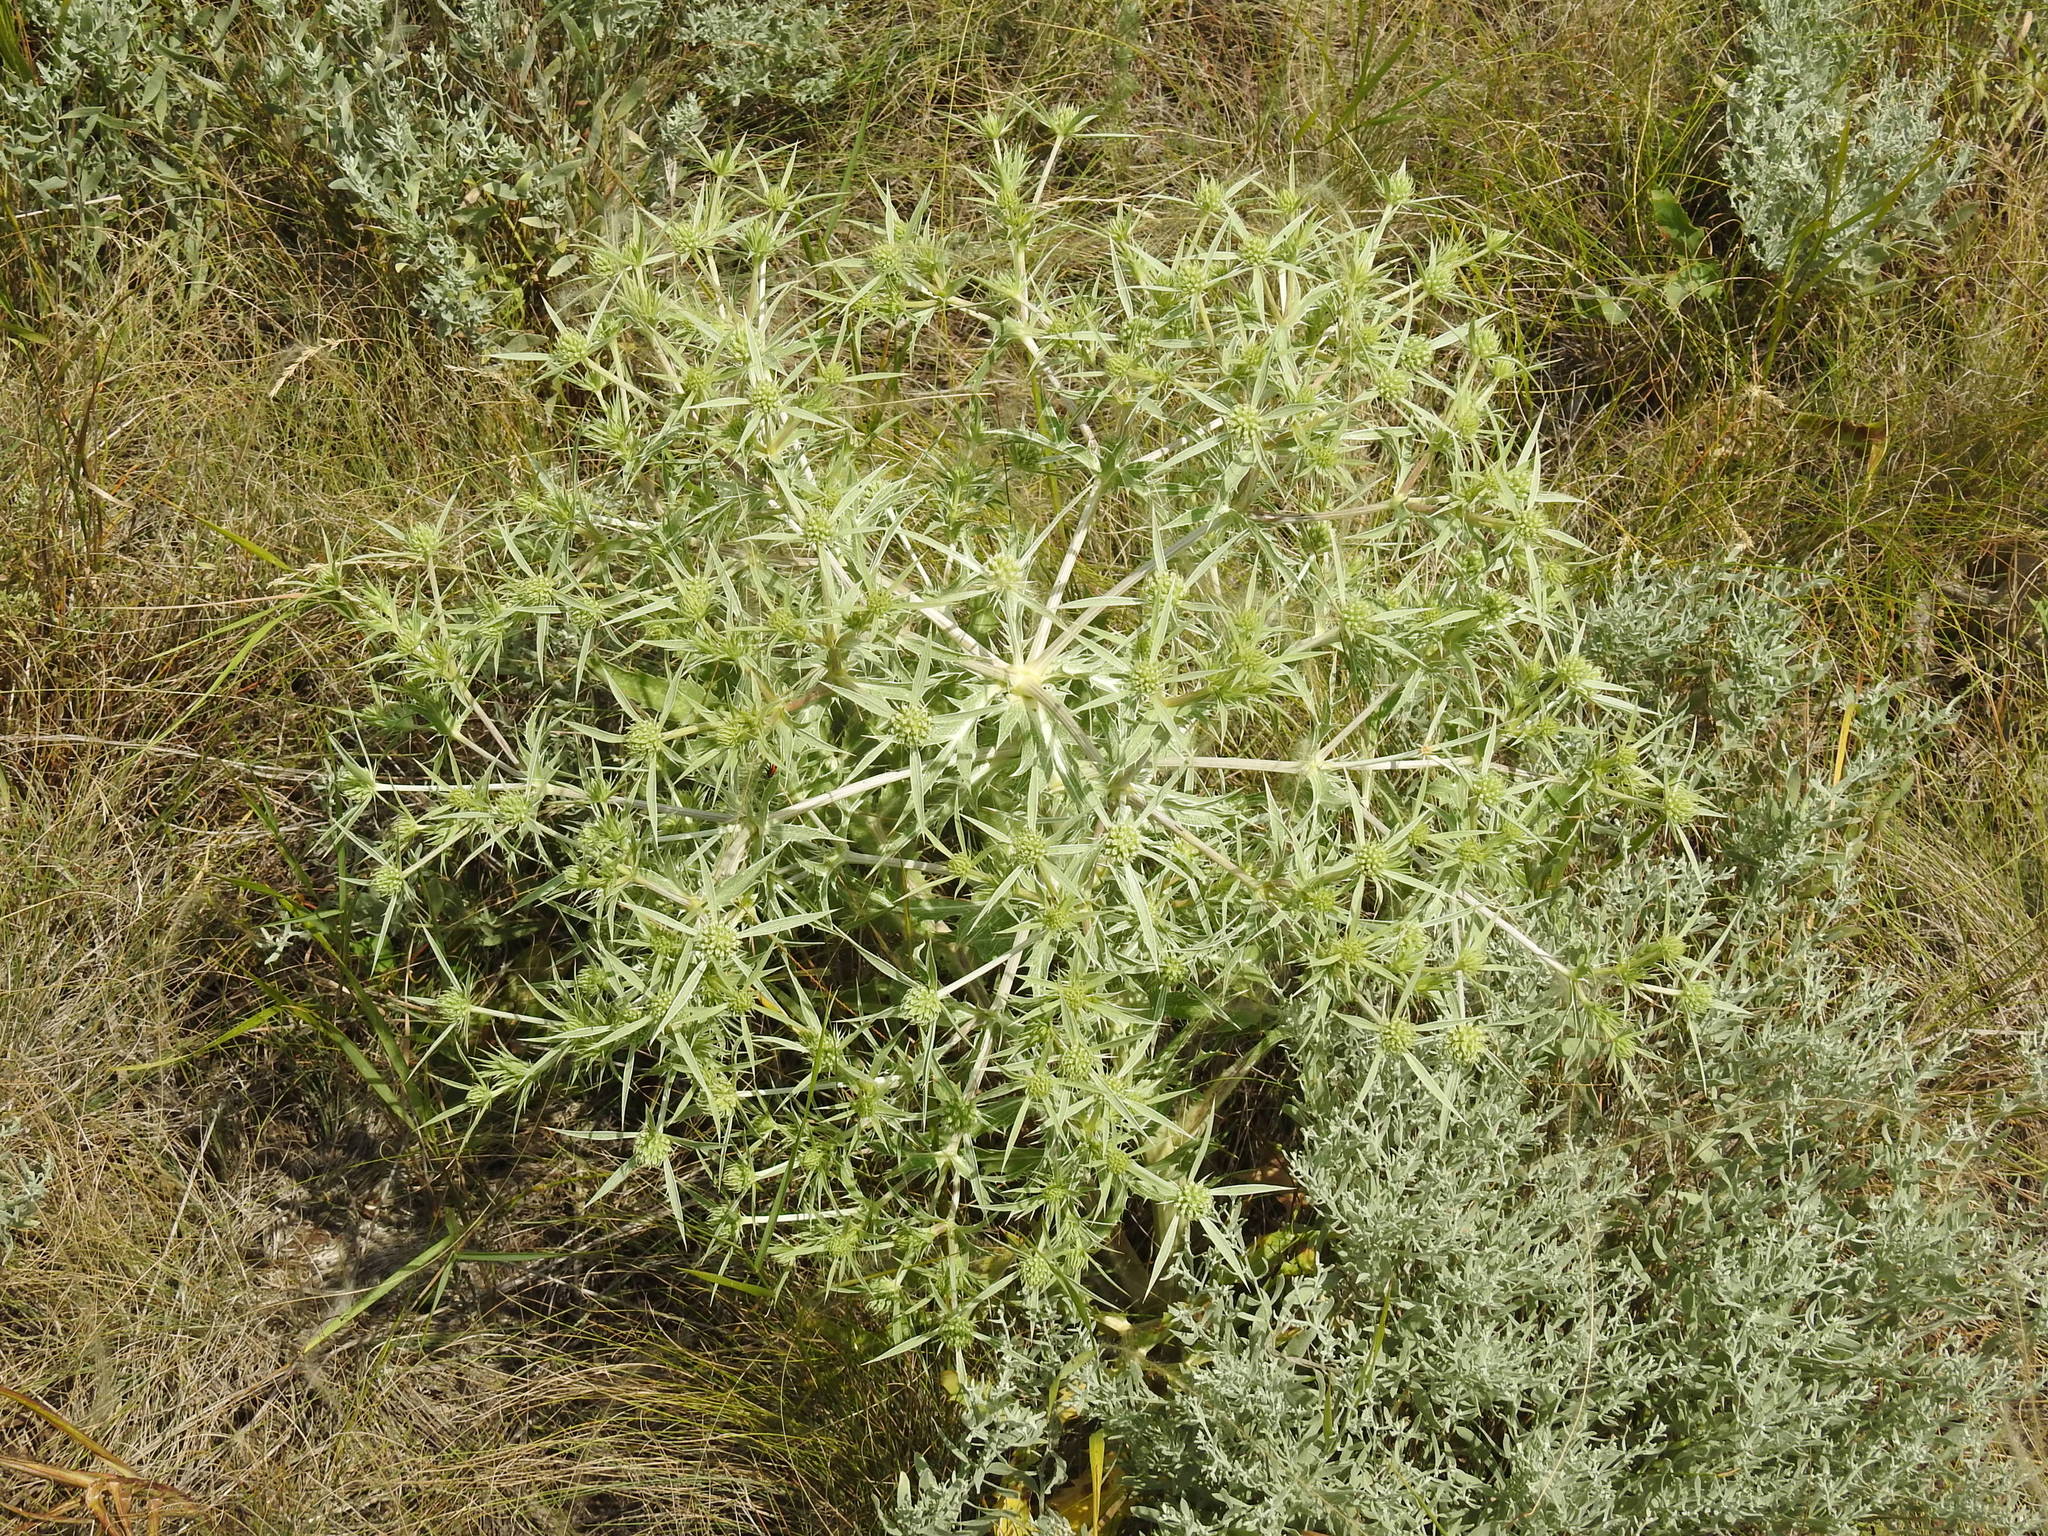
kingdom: Plantae
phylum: Tracheophyta
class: Magnoliopsida
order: Apiales
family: Apiaceae
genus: Eryngium
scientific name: Eryngium campestre
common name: Field eryngo
